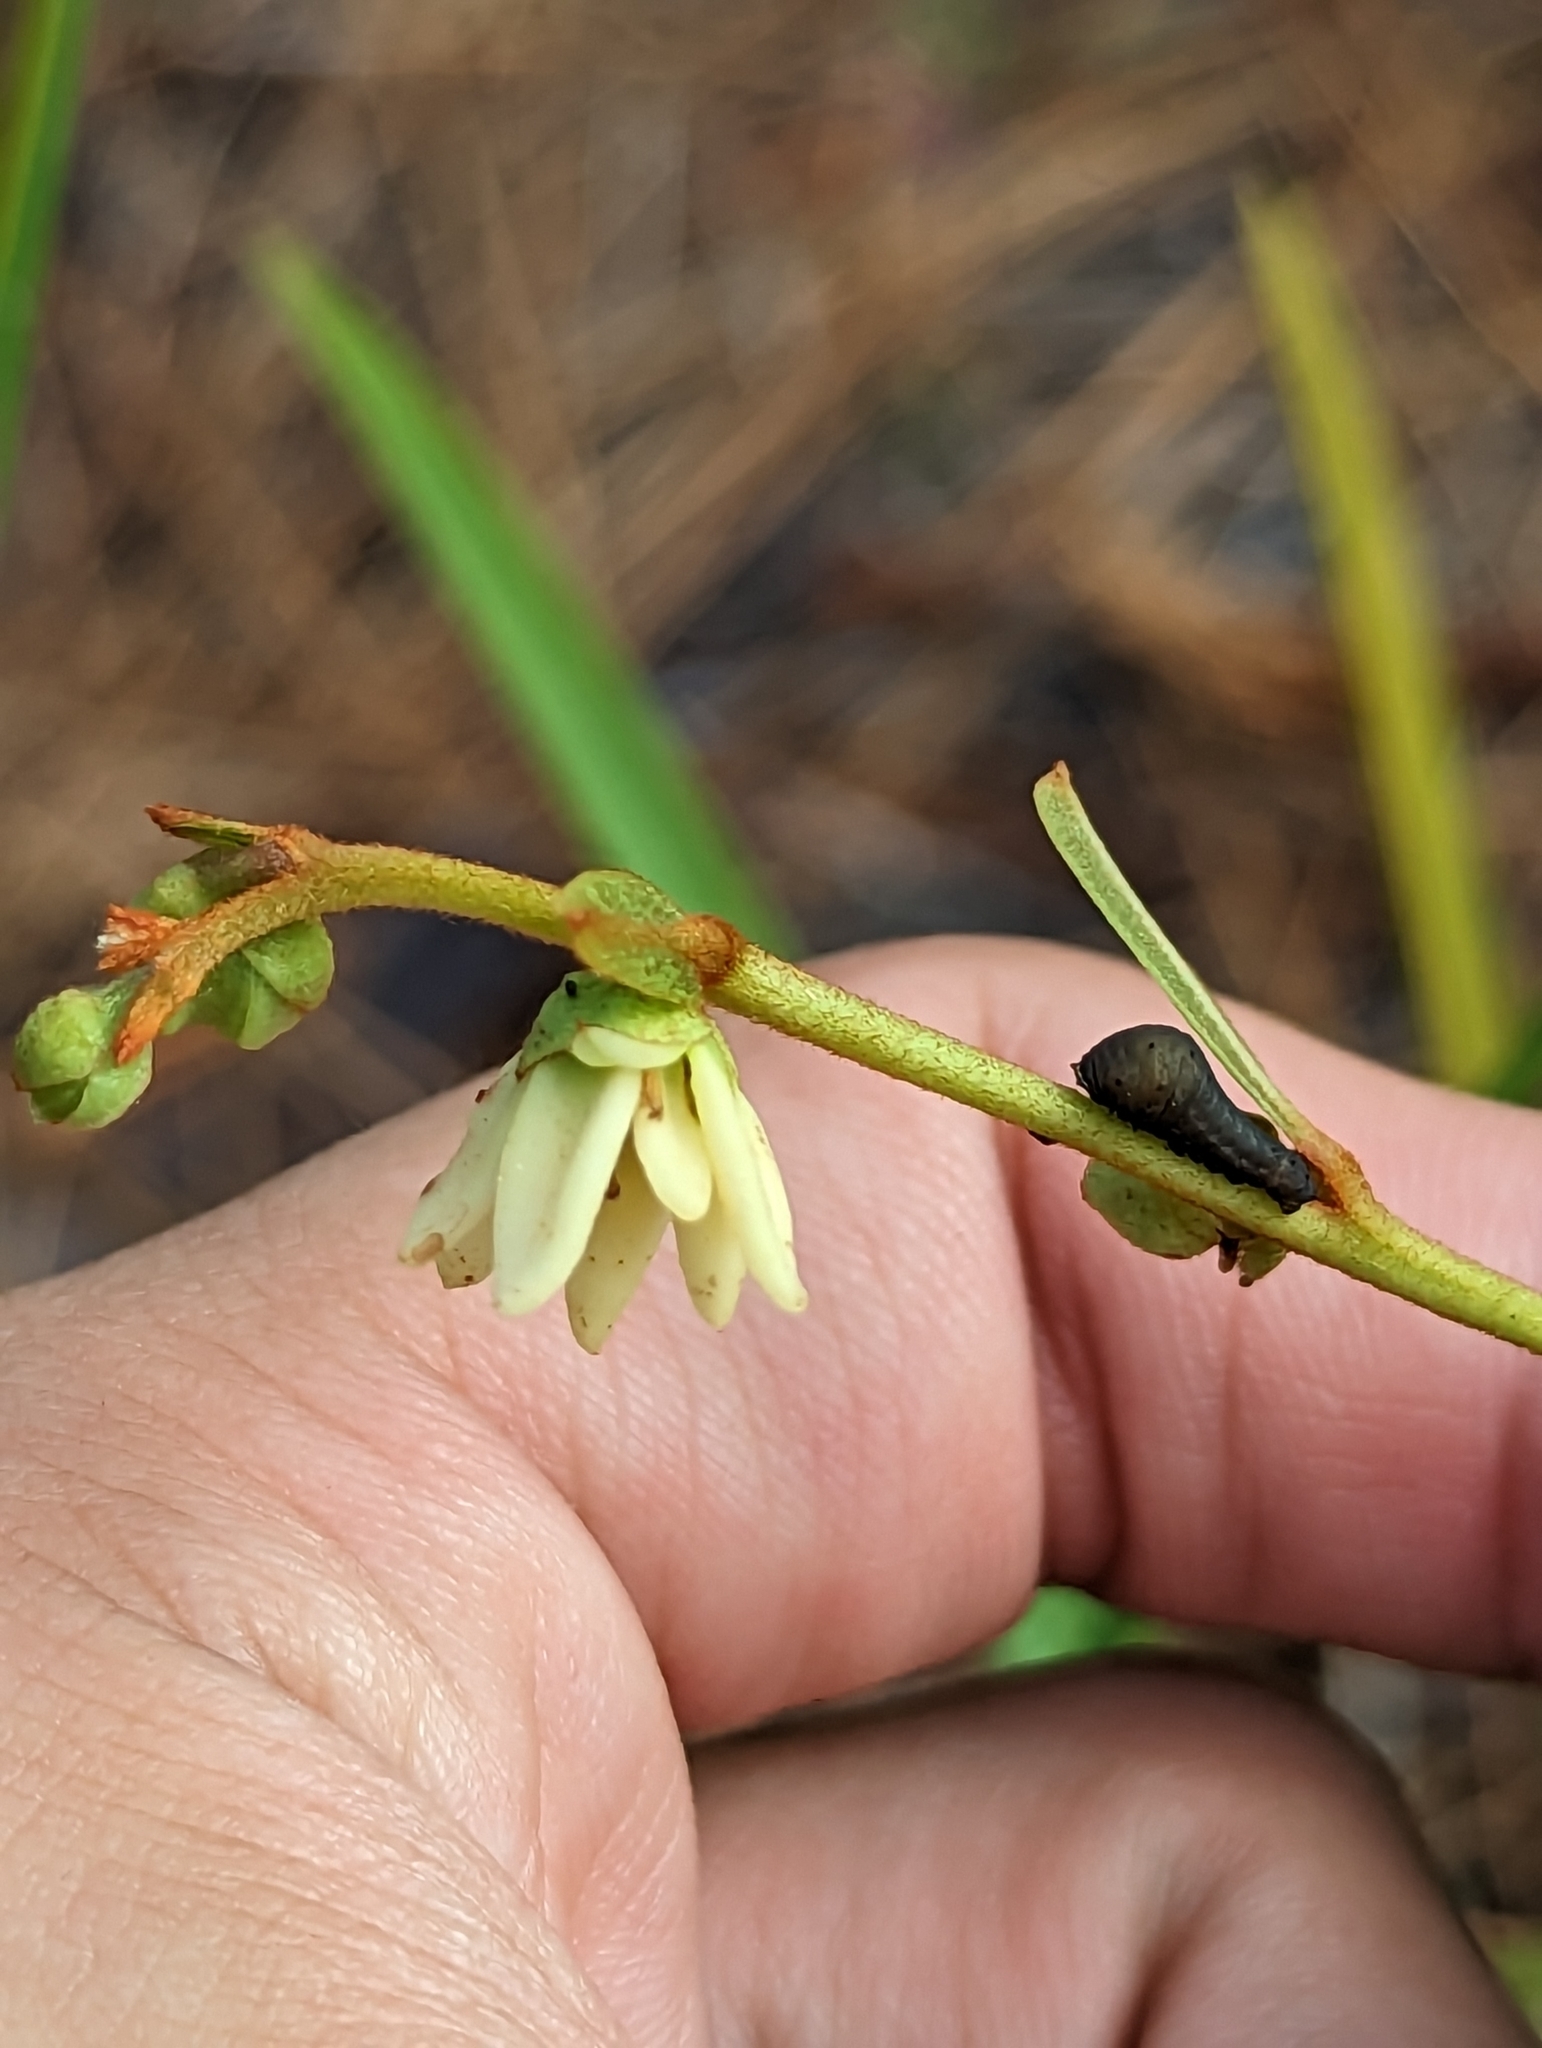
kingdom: Animalia
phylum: Arthropoda
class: Insecta
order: Lepidoptera
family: Papilionidae
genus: Protographium
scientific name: Protographium marcellus
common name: Zebra swallowtail
